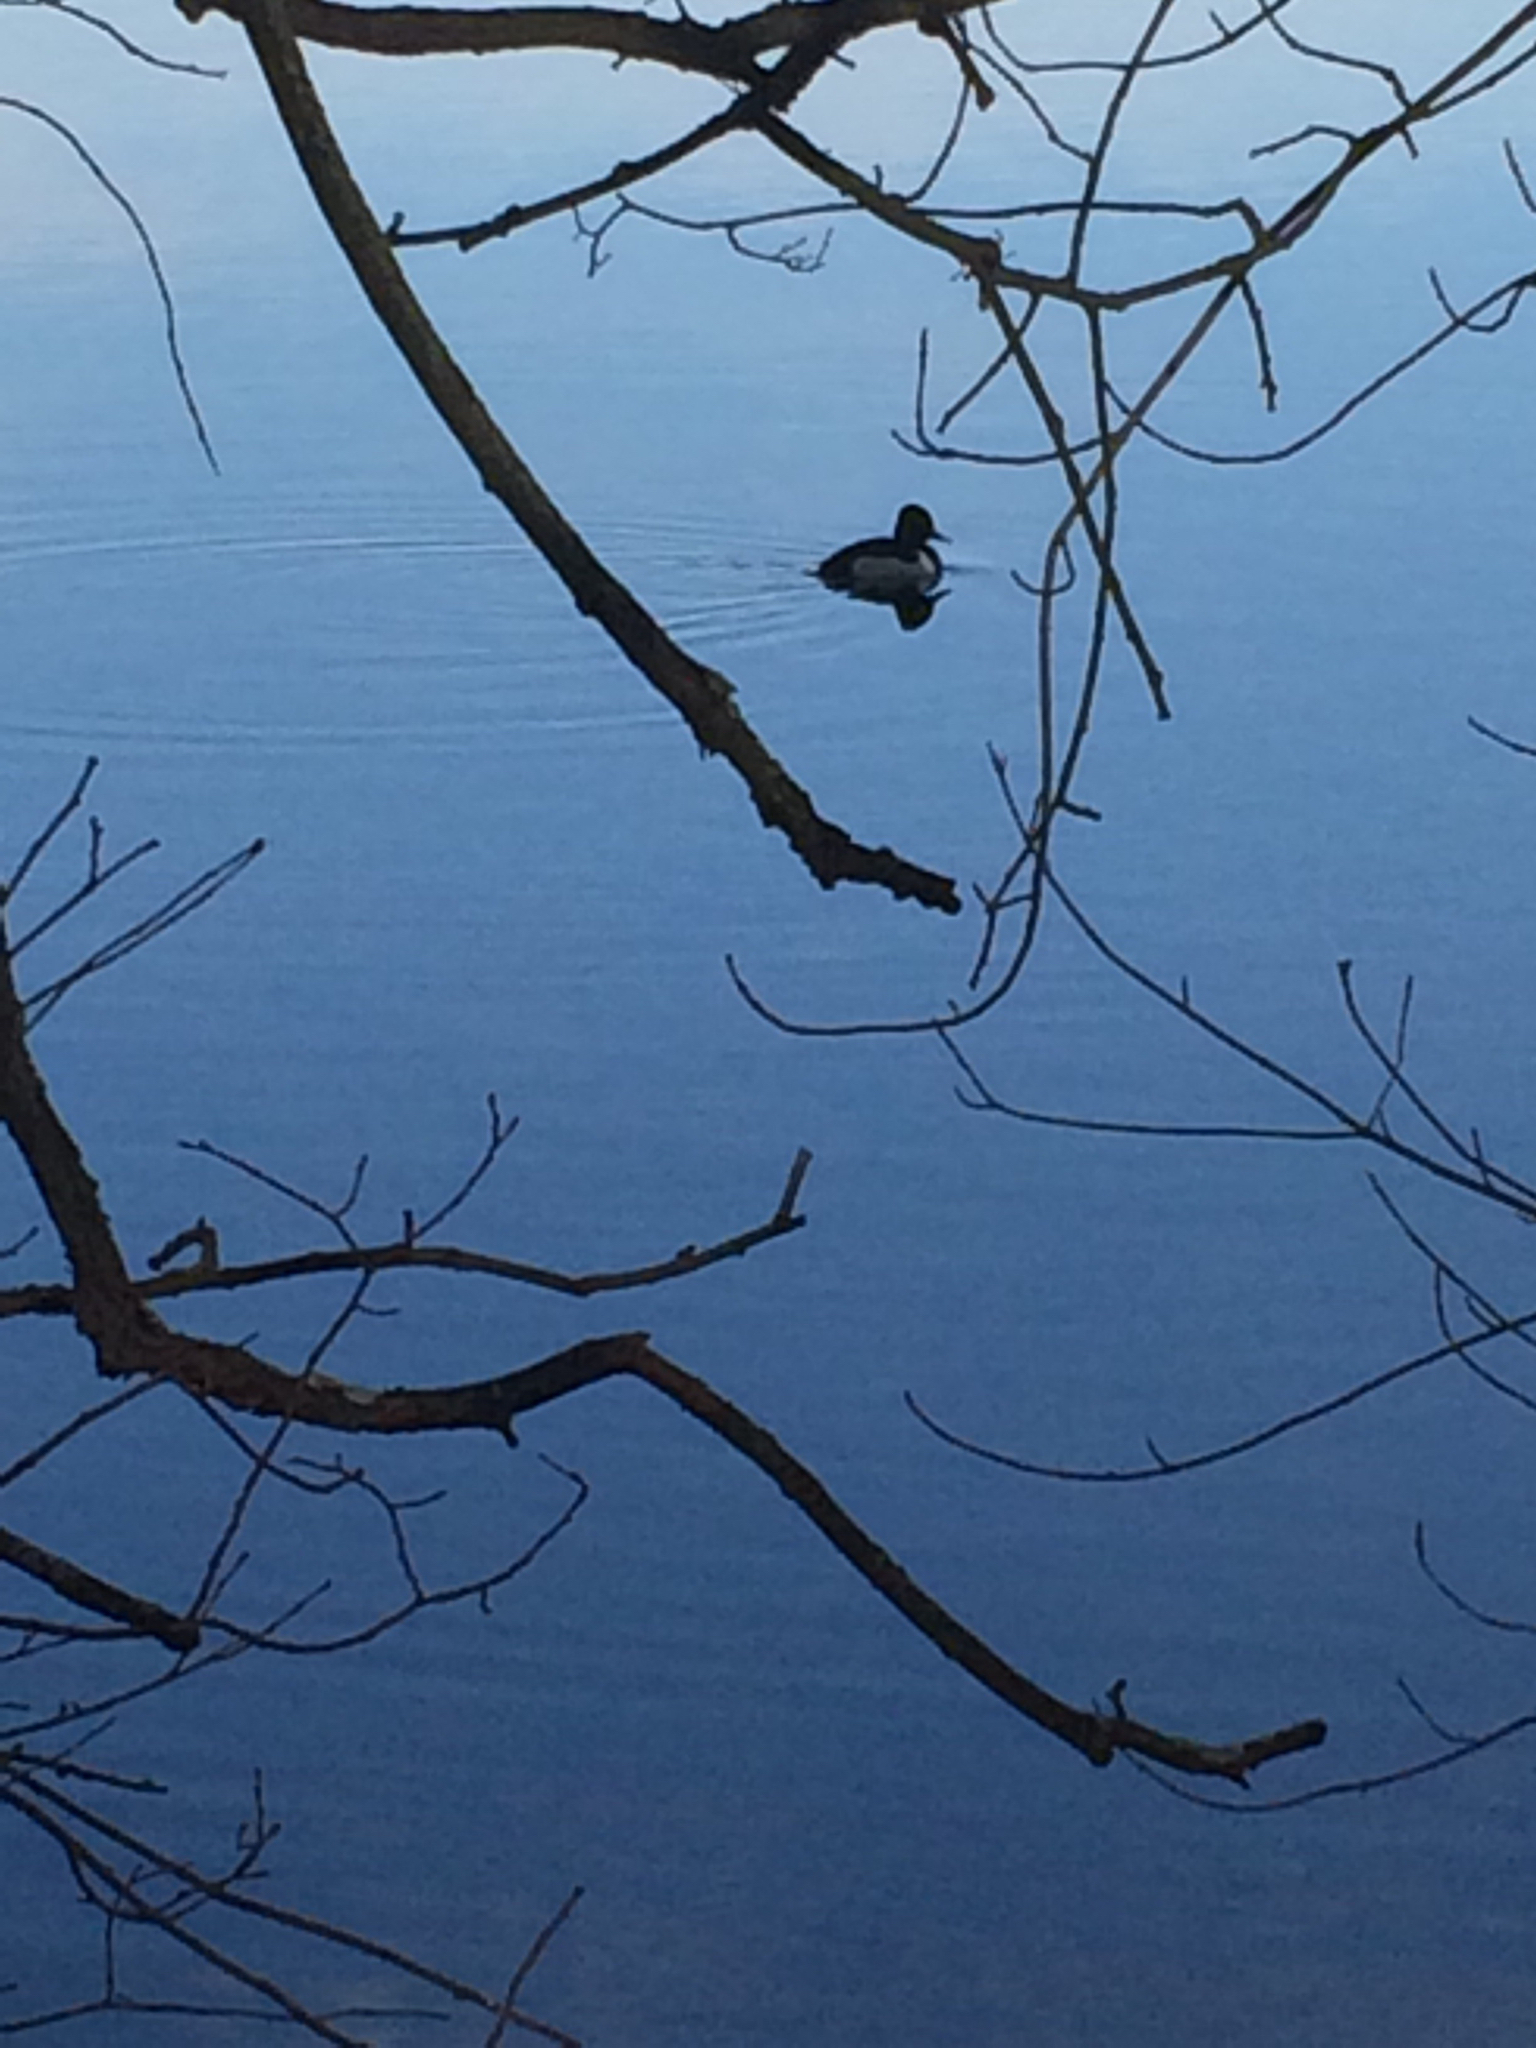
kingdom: Animalia
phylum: Chordata
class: Aves
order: Anseriformes
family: Anatidae
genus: Aythya
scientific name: Aythya collaris
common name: Ring-necked duck
